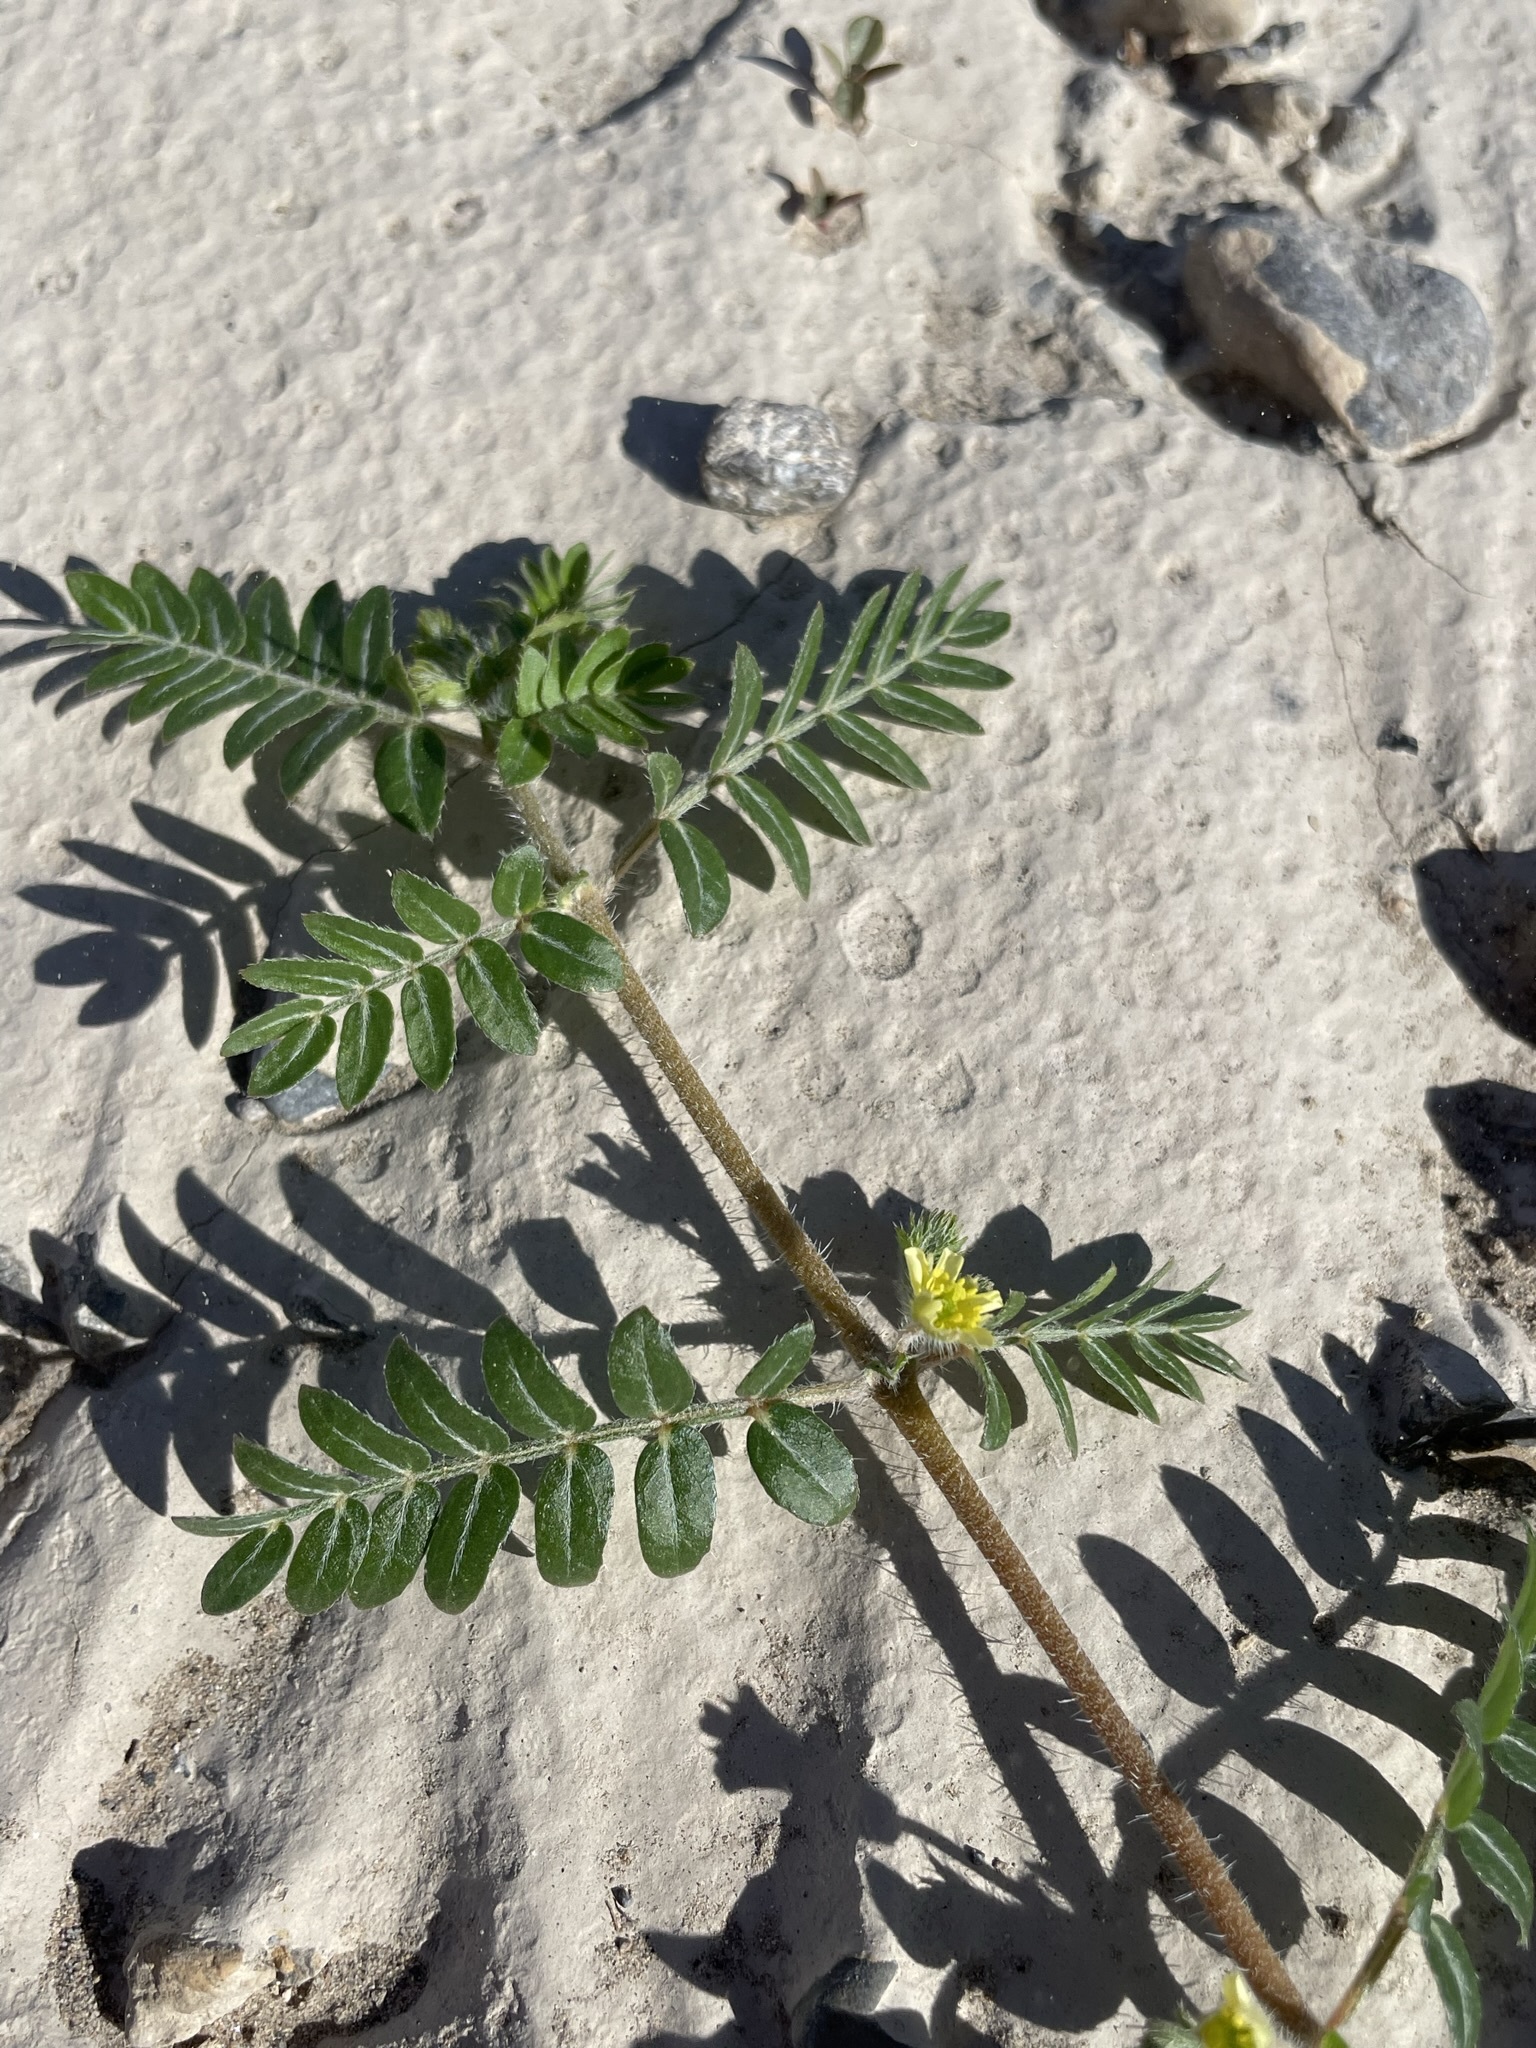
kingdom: Plantae
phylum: Tracheophyta
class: Magnoliopsida
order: Zygophyllales
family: Zygophyllaceae
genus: Tribulus
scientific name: Tribulus terrestris
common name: Puncturevine
